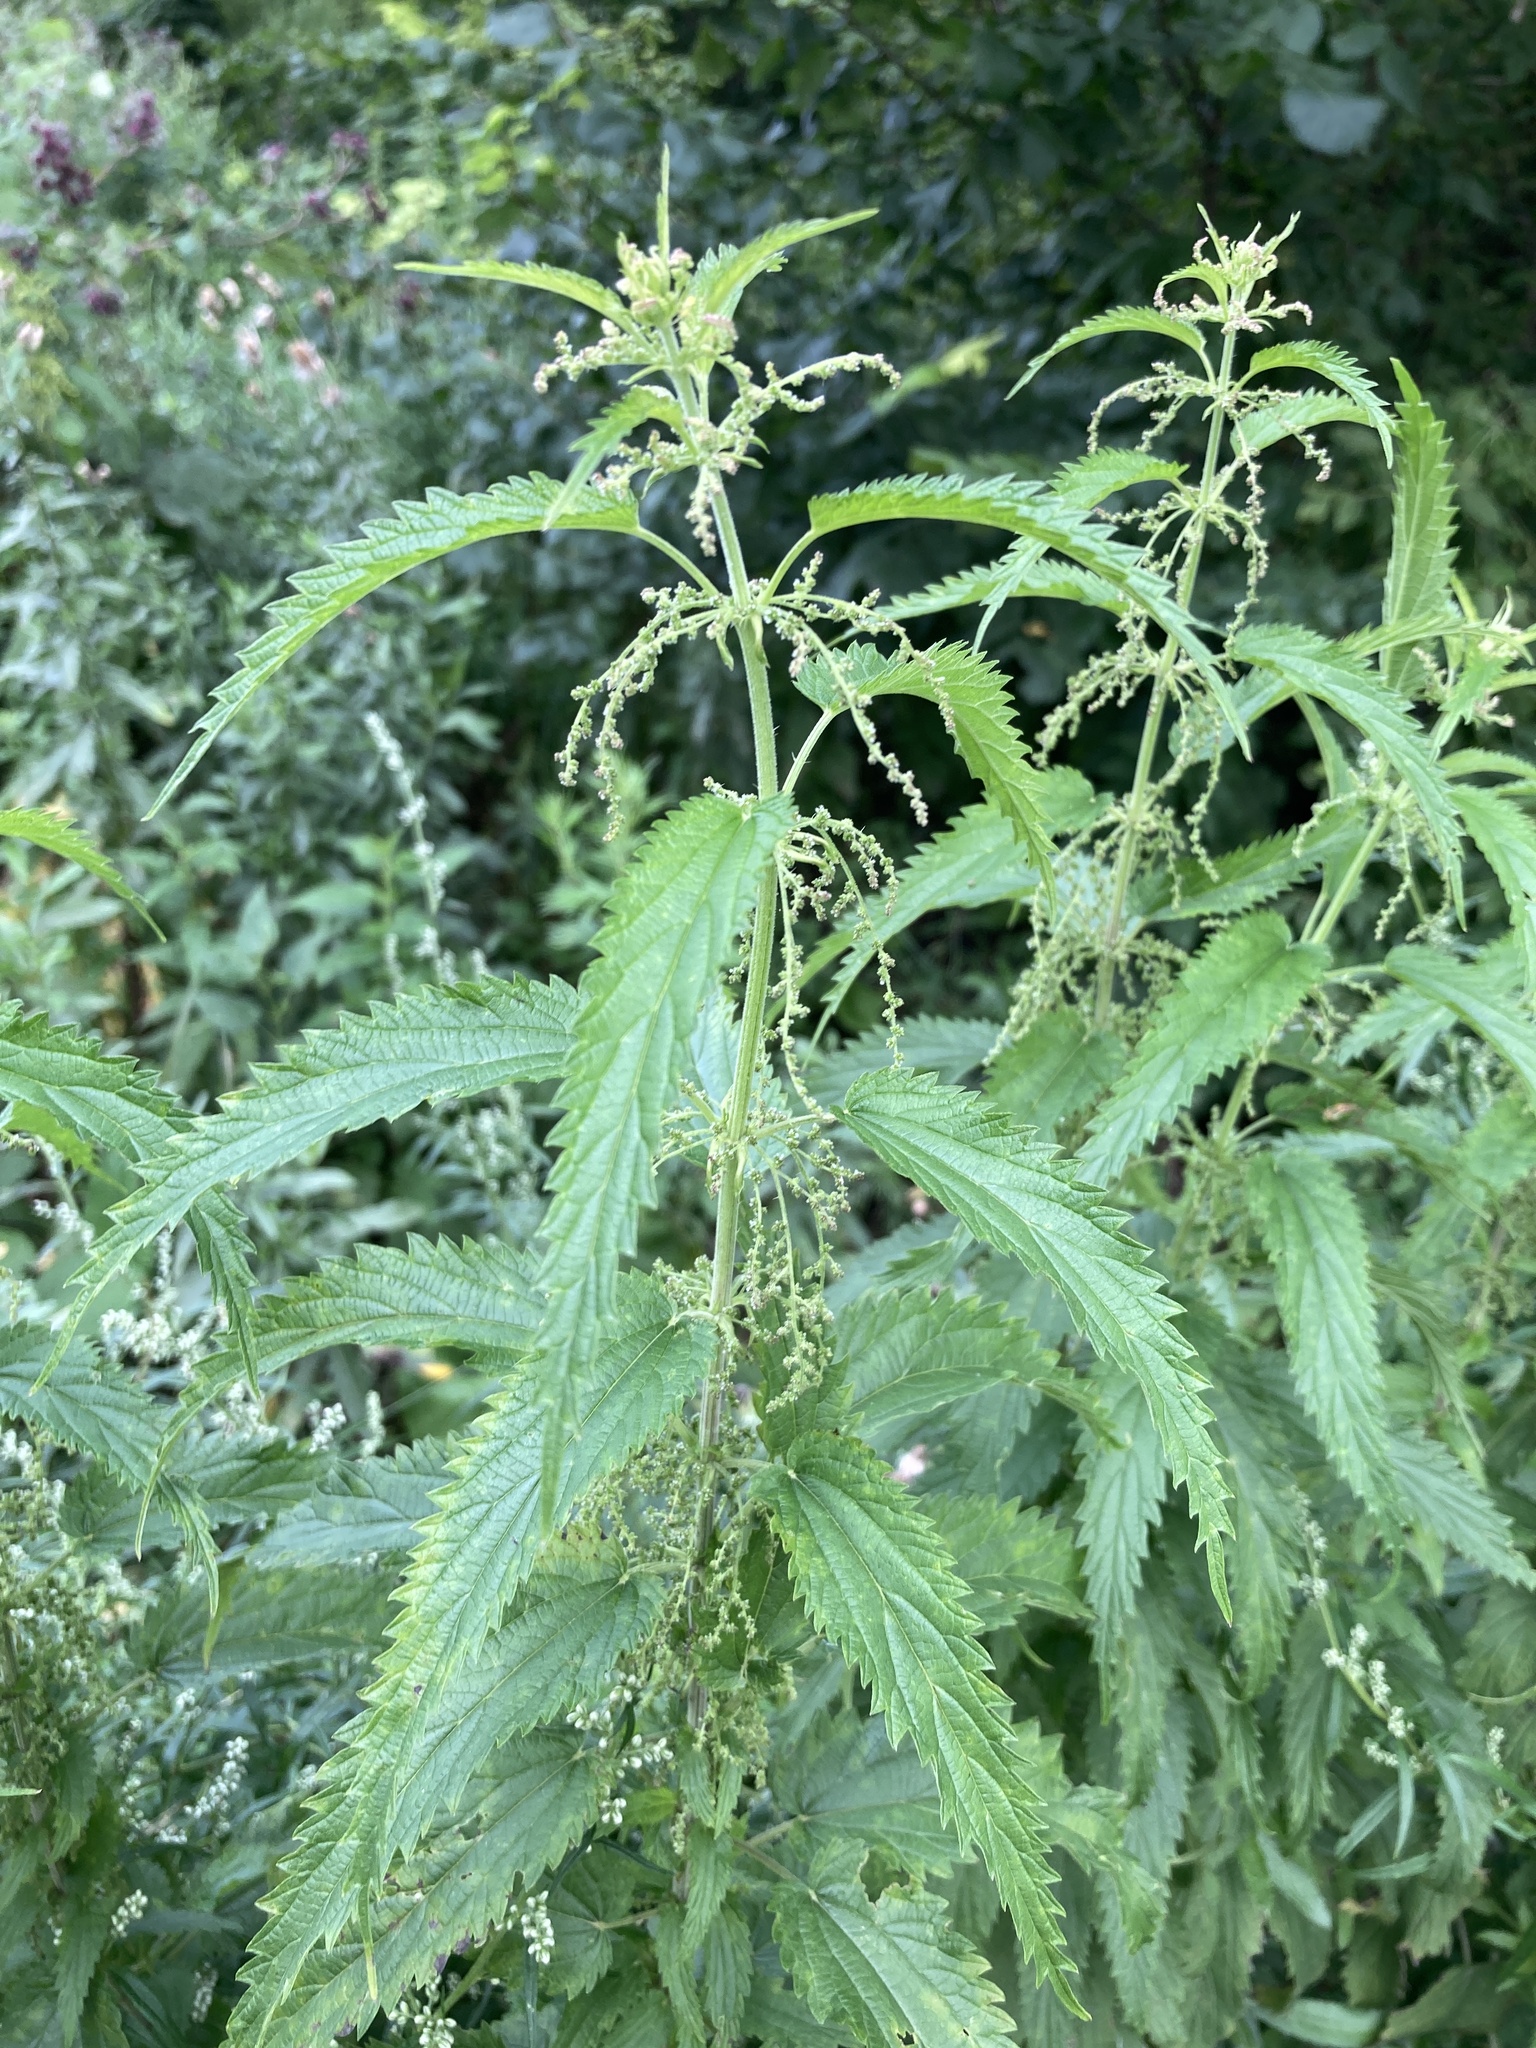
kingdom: Plantae
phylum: Tracheophyta
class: Magnoliopsida
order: Rosales
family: Urticaceae
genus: Urtica
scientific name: Urtica dioica
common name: Common nettle
